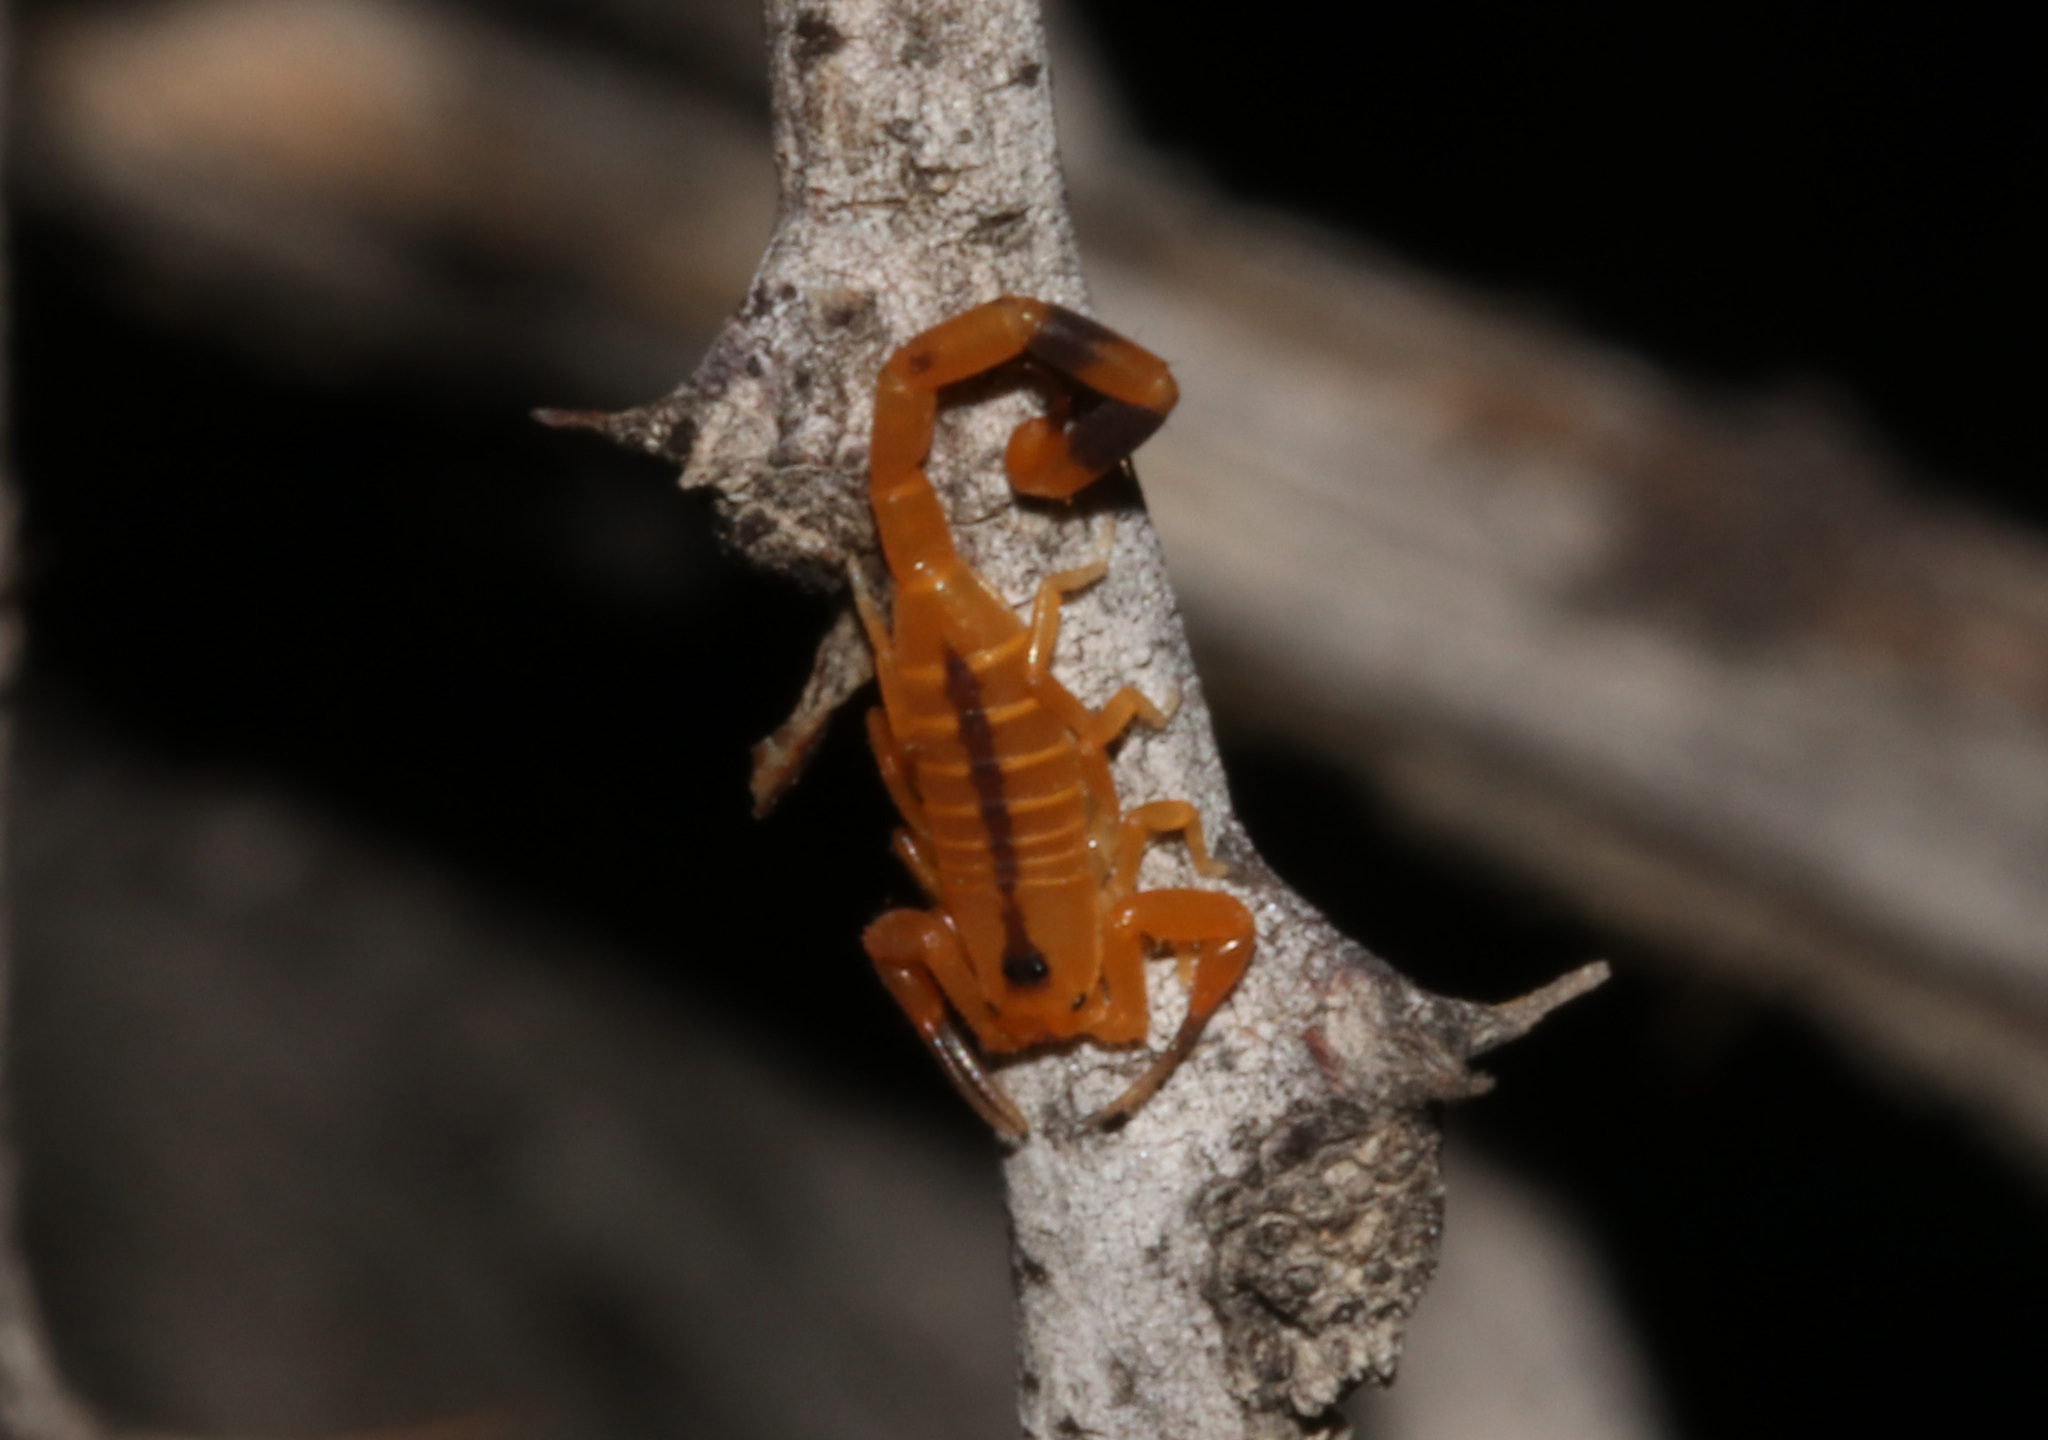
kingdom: Animalia
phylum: Arthropoda
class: Arachnida
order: Scorpiones
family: Buthidae
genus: Uroplectes
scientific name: Uroplectes otjimbinguensis
